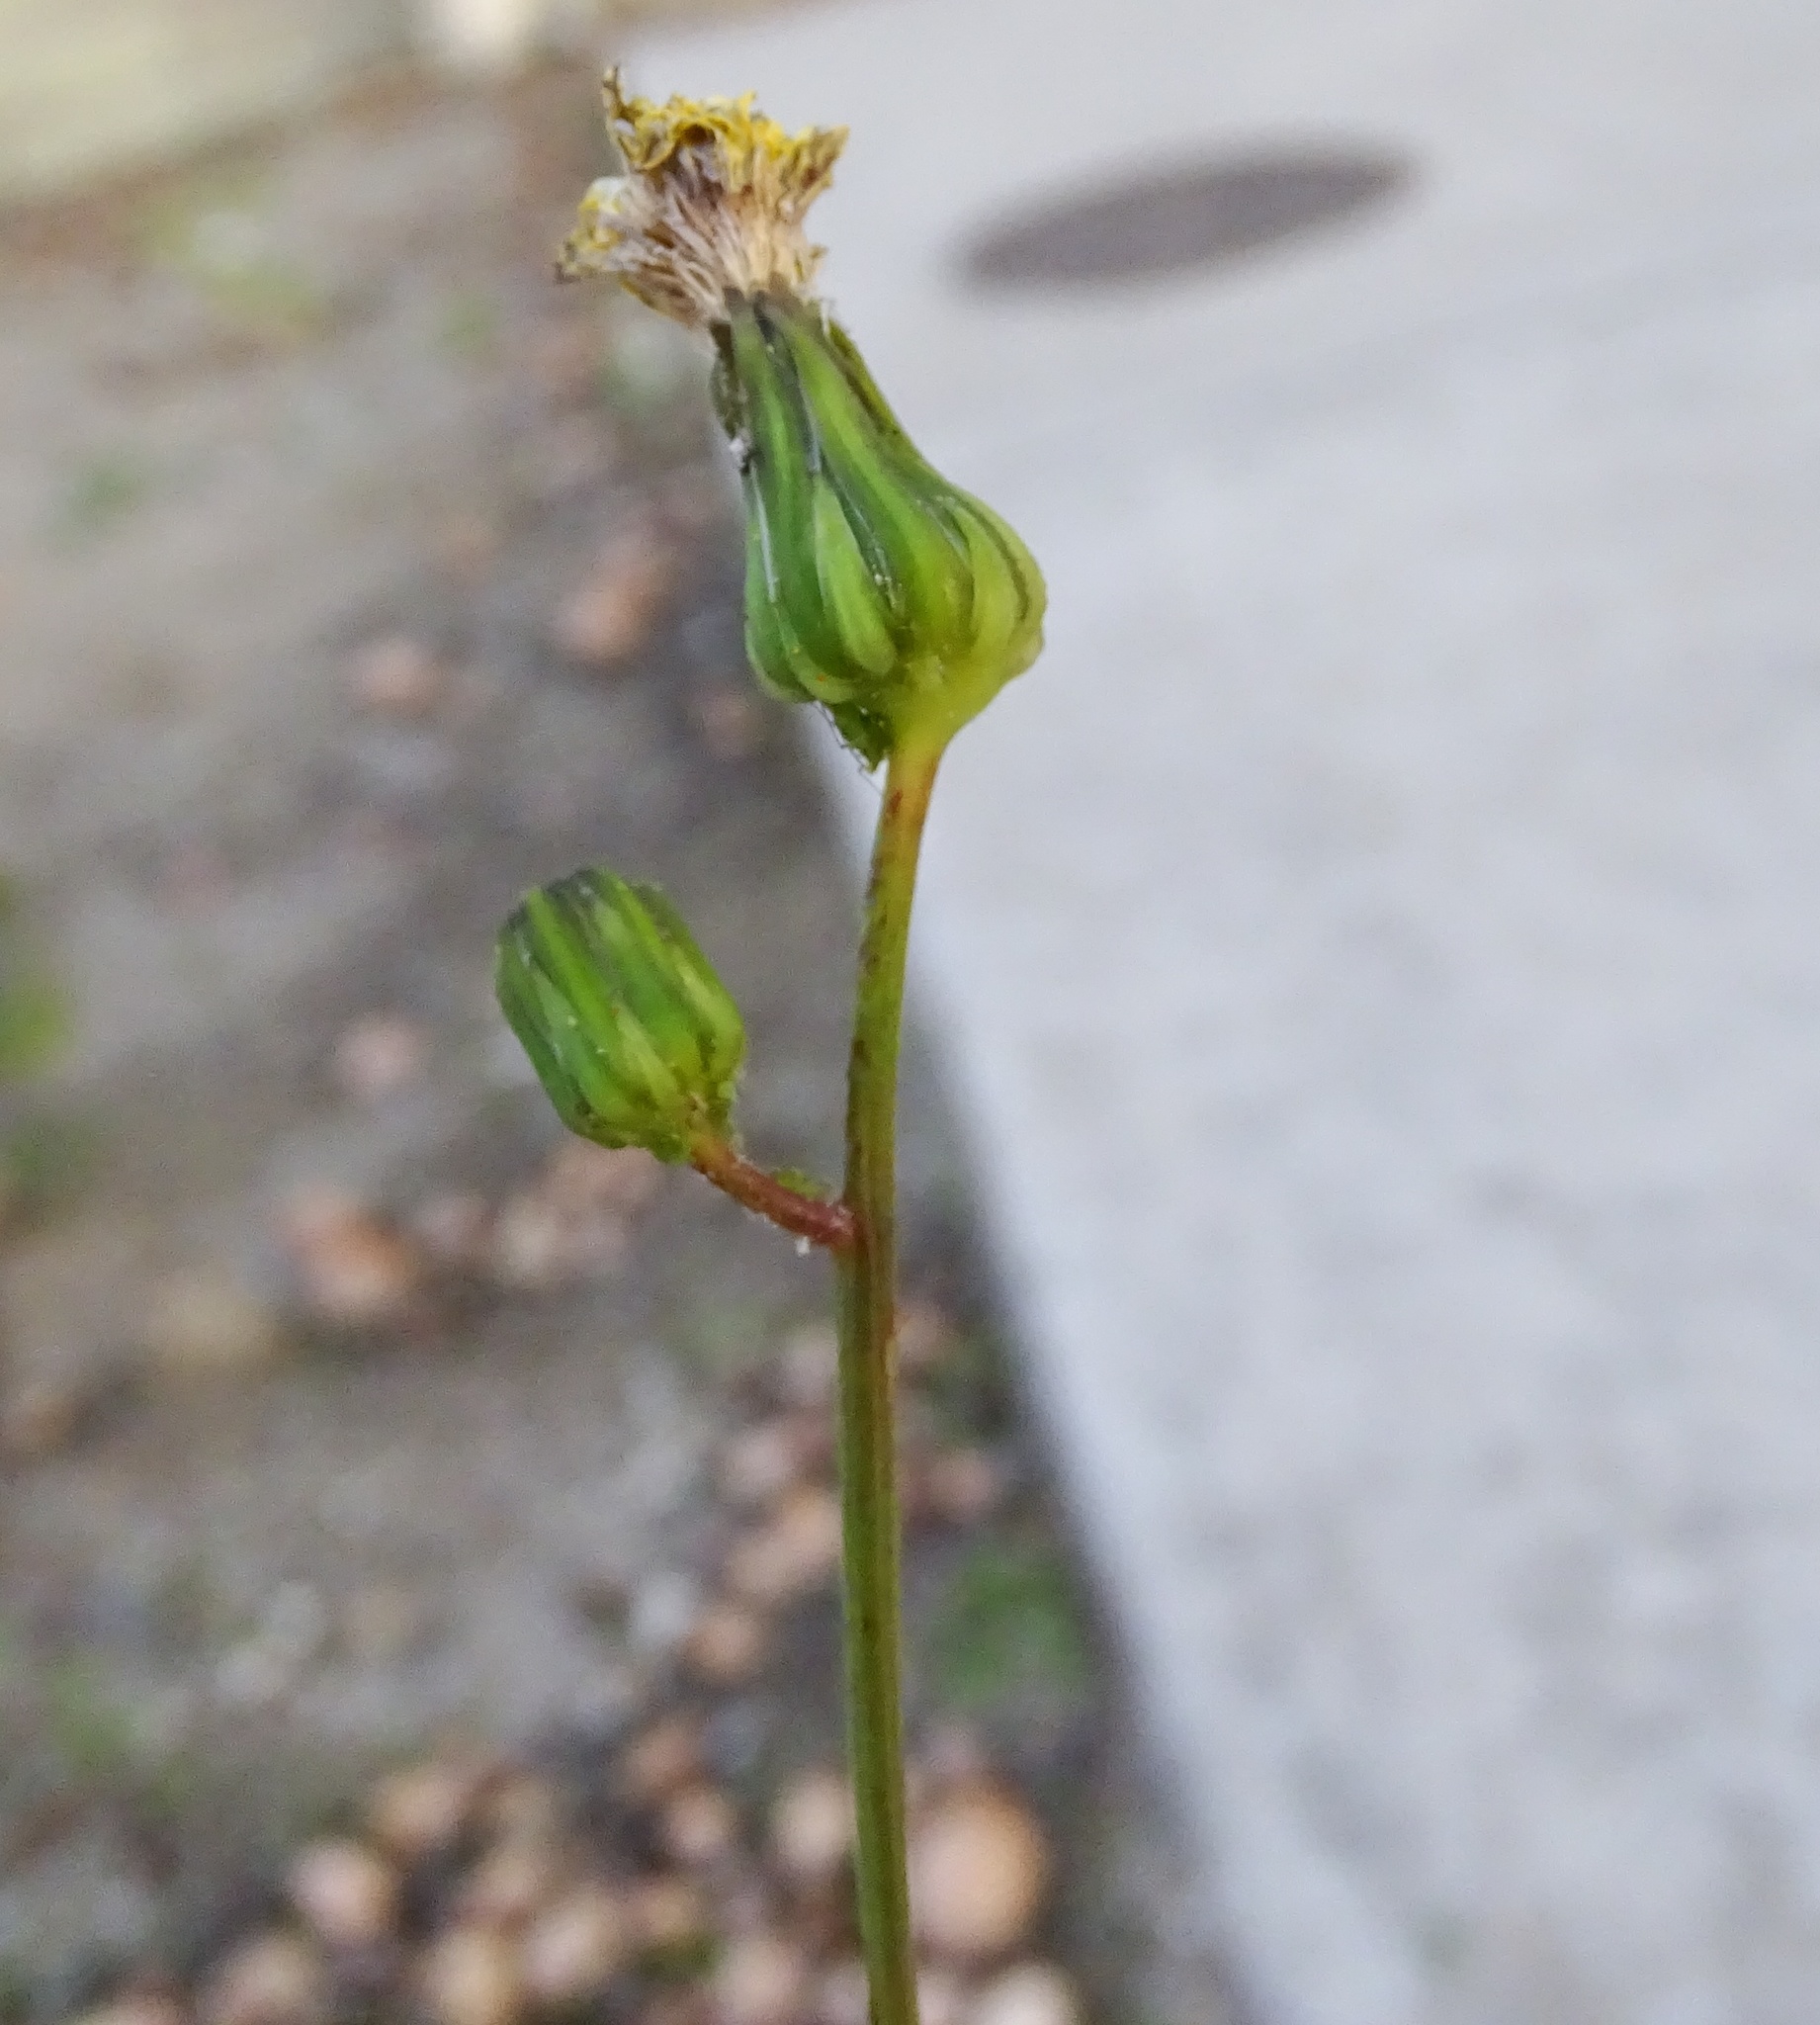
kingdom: Plantae
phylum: Tracheophyta
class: Magnoliopsida
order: Asterales
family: Asteraceae
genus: Sonchus
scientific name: Sonchus oleraceus
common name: Common sowthistle
